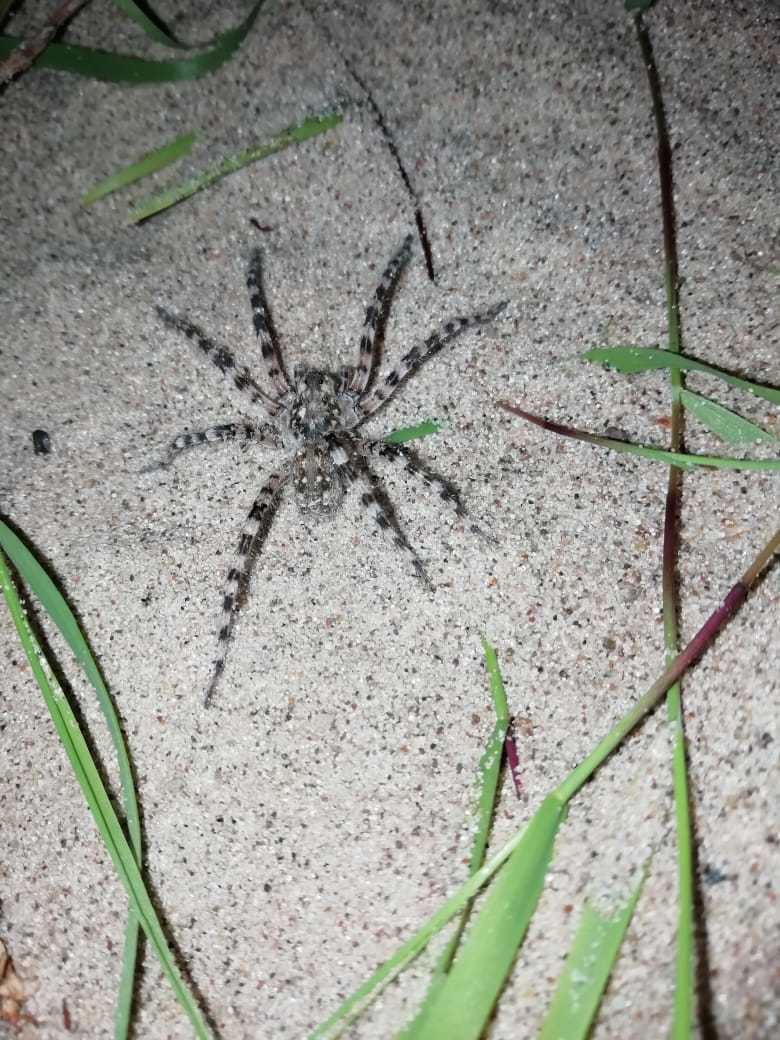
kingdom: Animalia
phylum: Arthropoda
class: Arachnida
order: Araneae
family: Lycosidae
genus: Arctosa
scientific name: Arctosa cinerea
